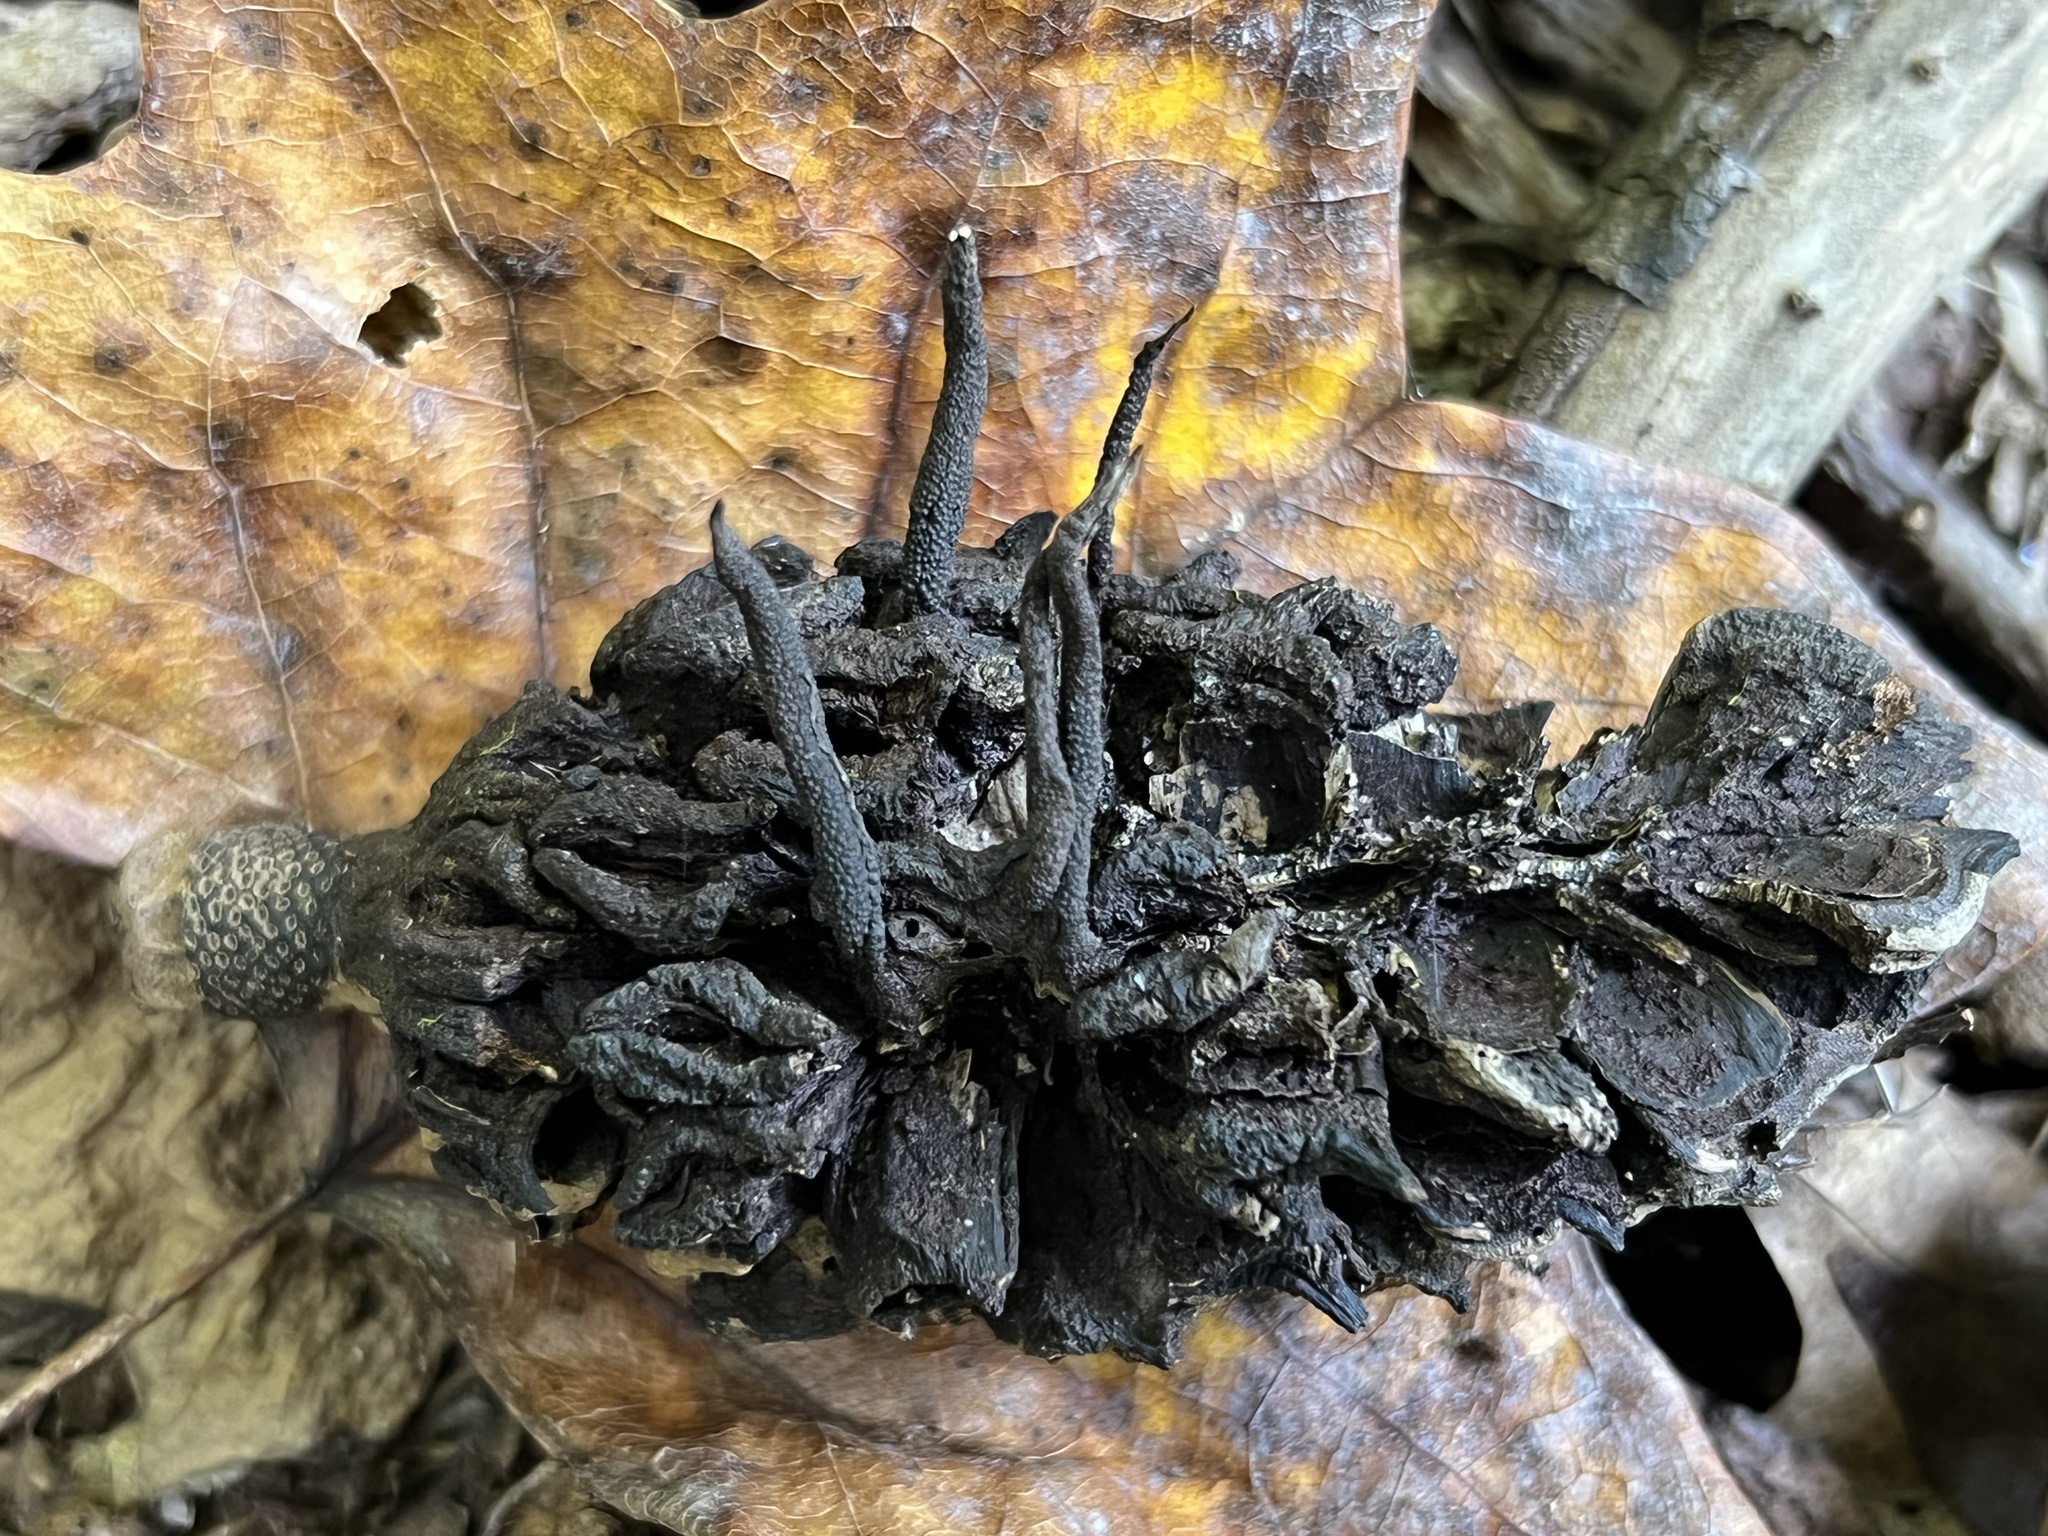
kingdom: Fungi
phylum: Ascomycota
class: Sordariomycetes
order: Xylariales
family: Xylariaceae
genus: Xylaria
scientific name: Xylaria magnoliae
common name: Magnolia-cone xylaria
